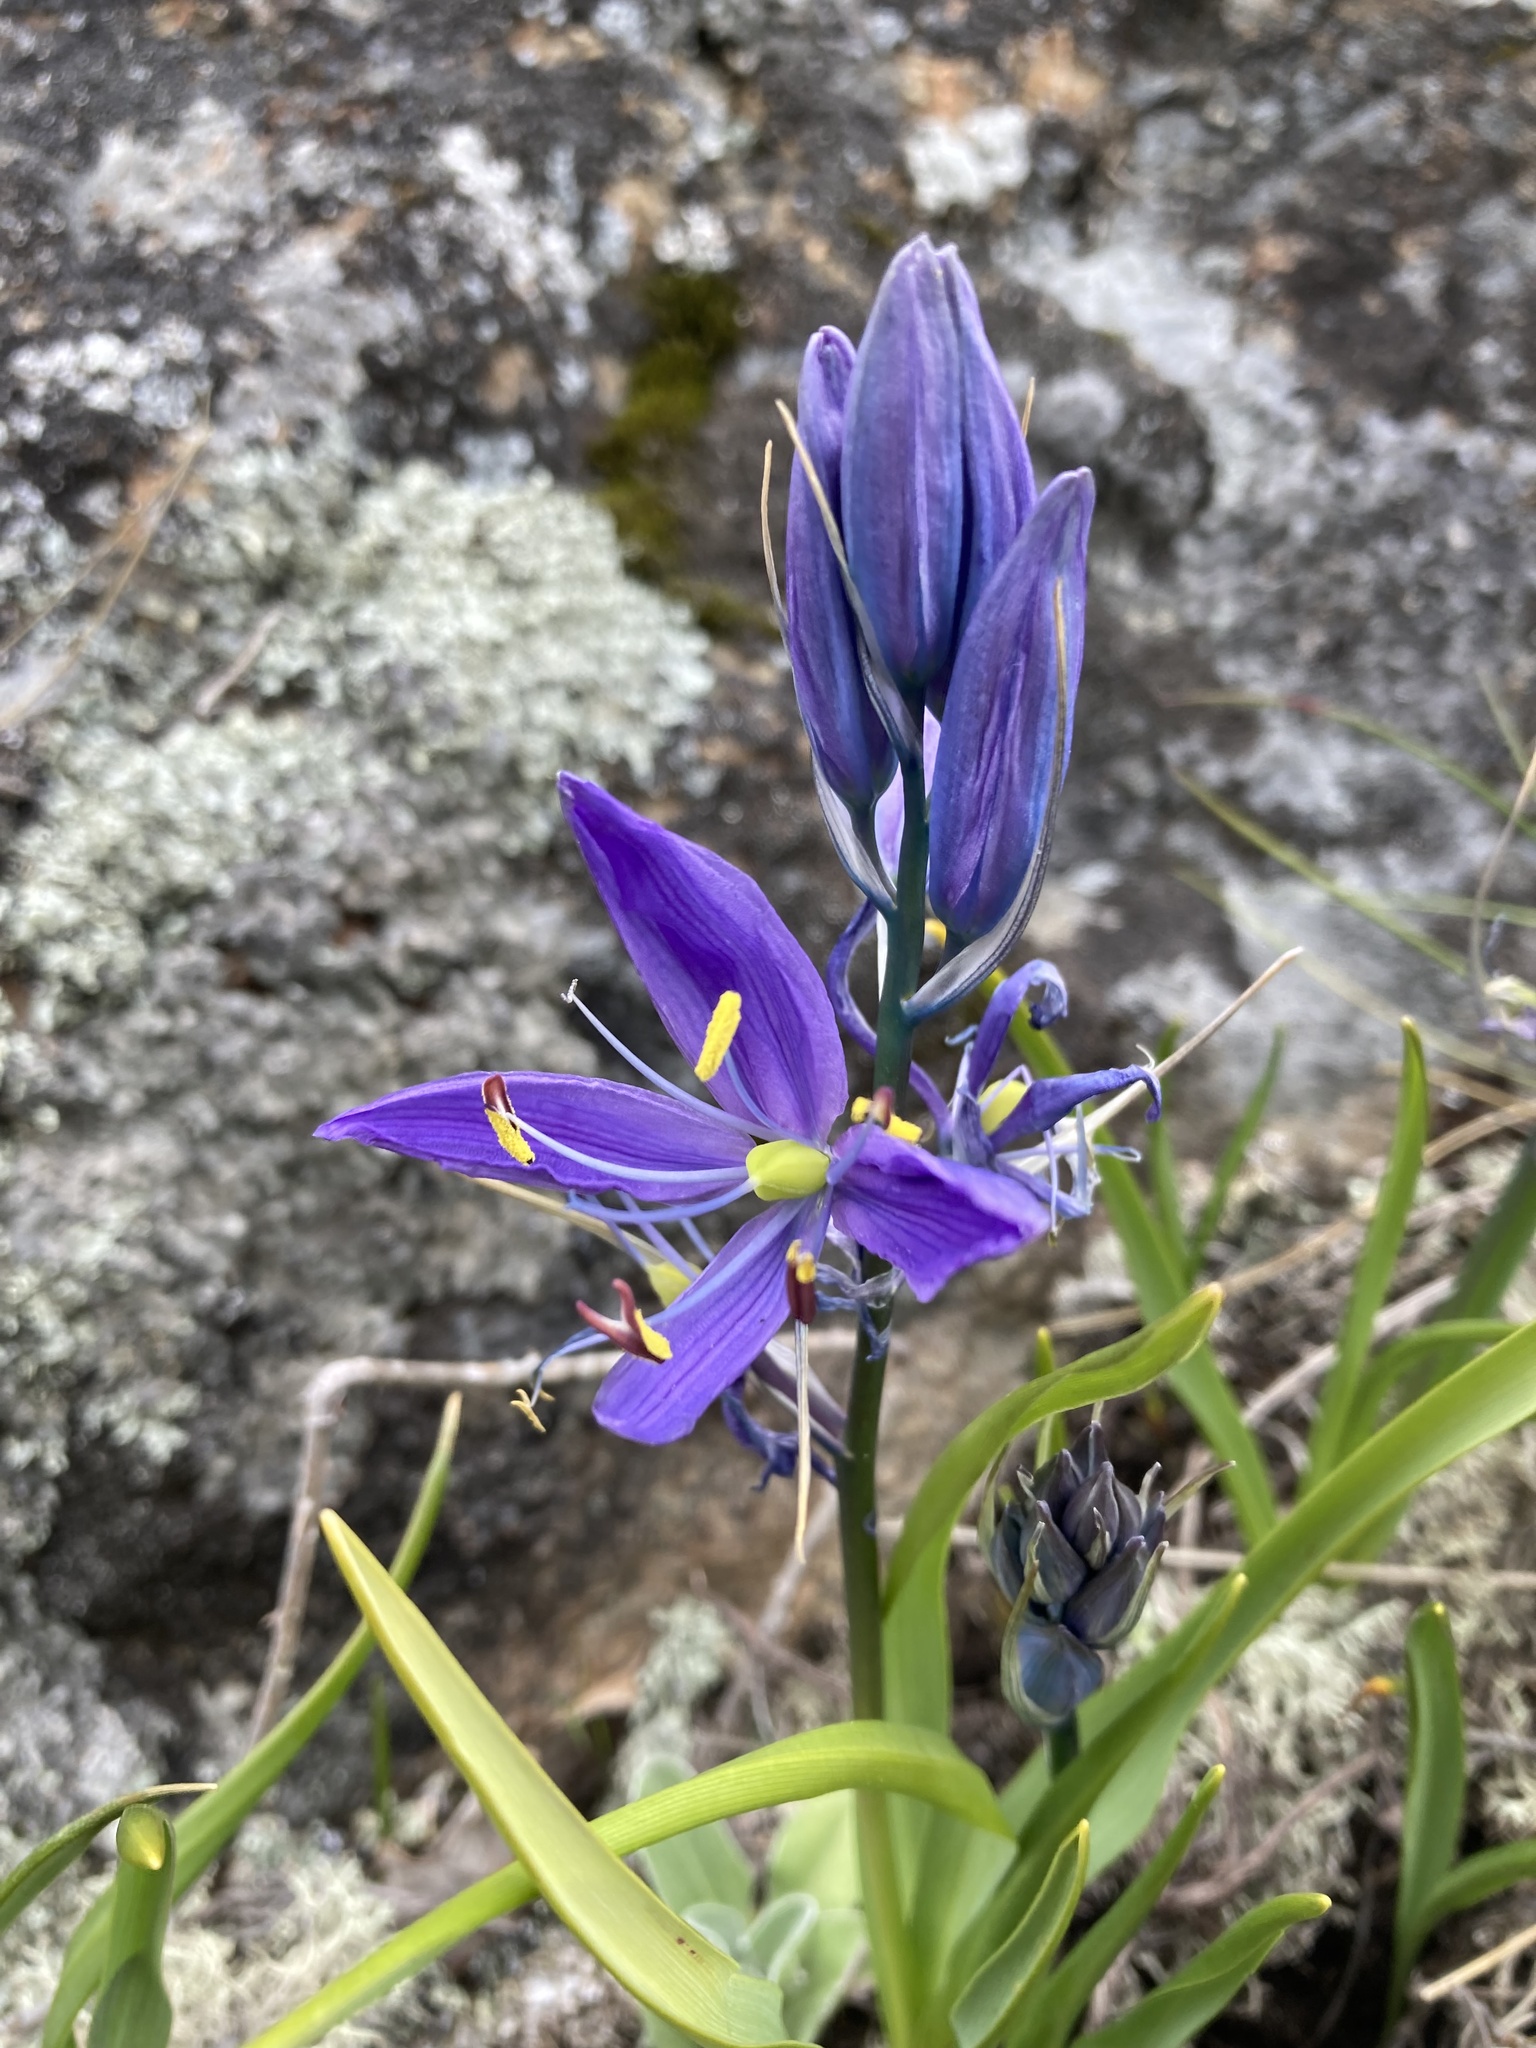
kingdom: Plantae
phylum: Tracheophyta
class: Liliopsida
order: Asparagales
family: Asparagaceae
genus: Camassia
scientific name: Camassia quamash
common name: Common camas
